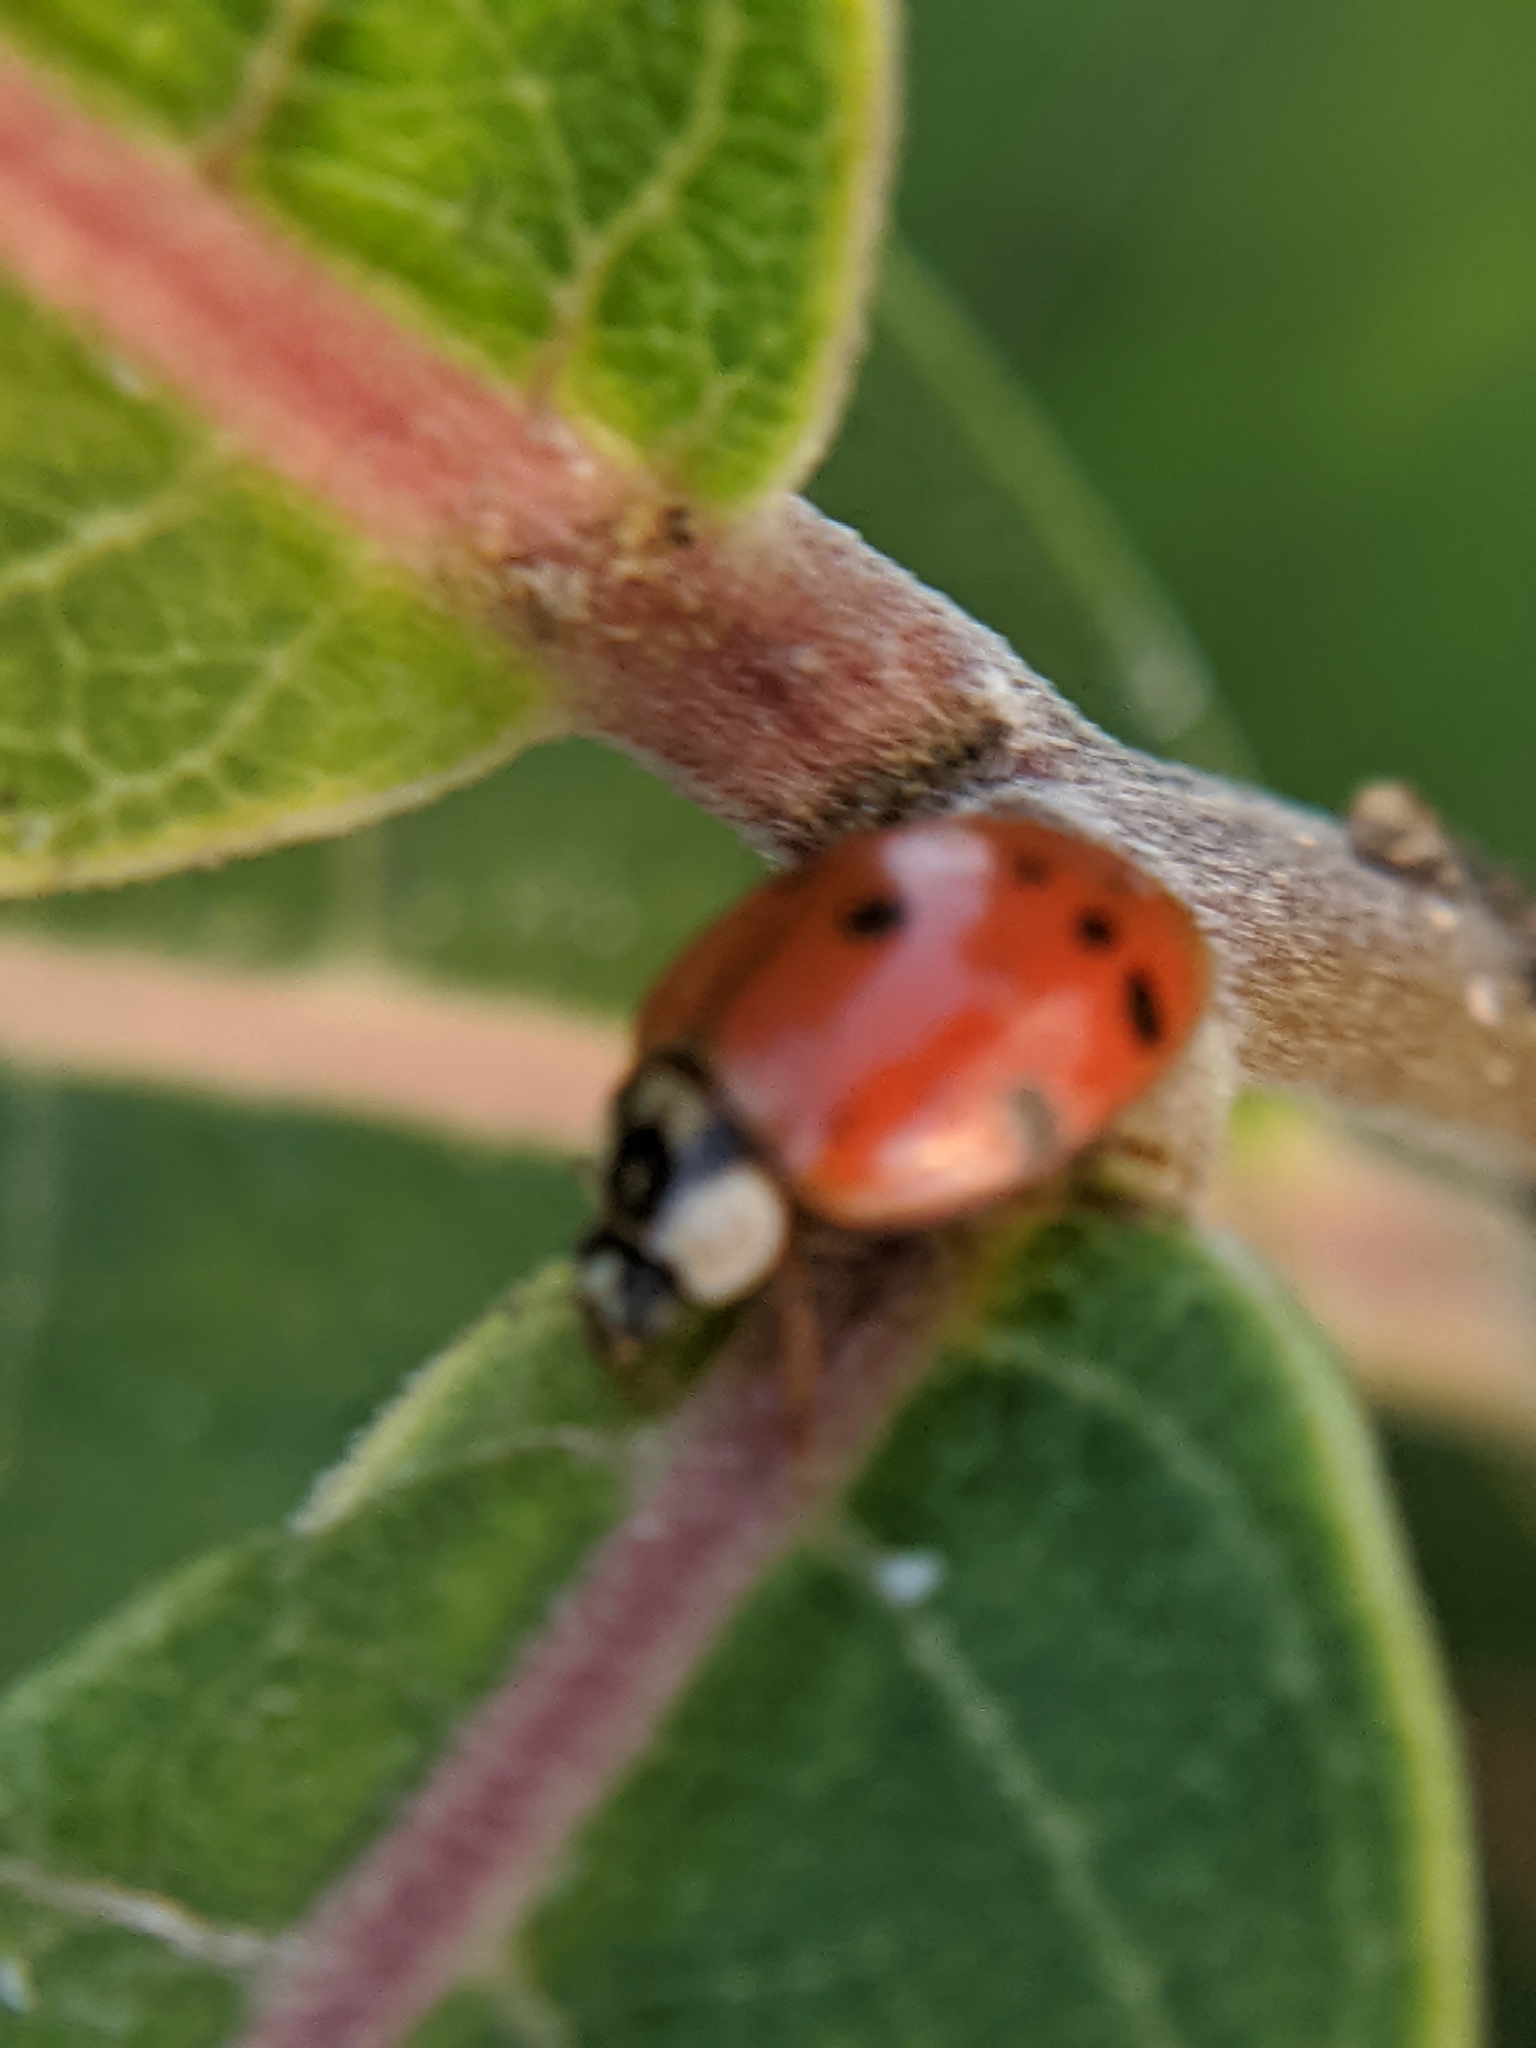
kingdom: Animalia
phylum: Arthropoda
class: Insecta
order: Coleoptera
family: Coccinellidae
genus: Harmonia
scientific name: Harmonia axyridis
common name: Harlequin ladybird
